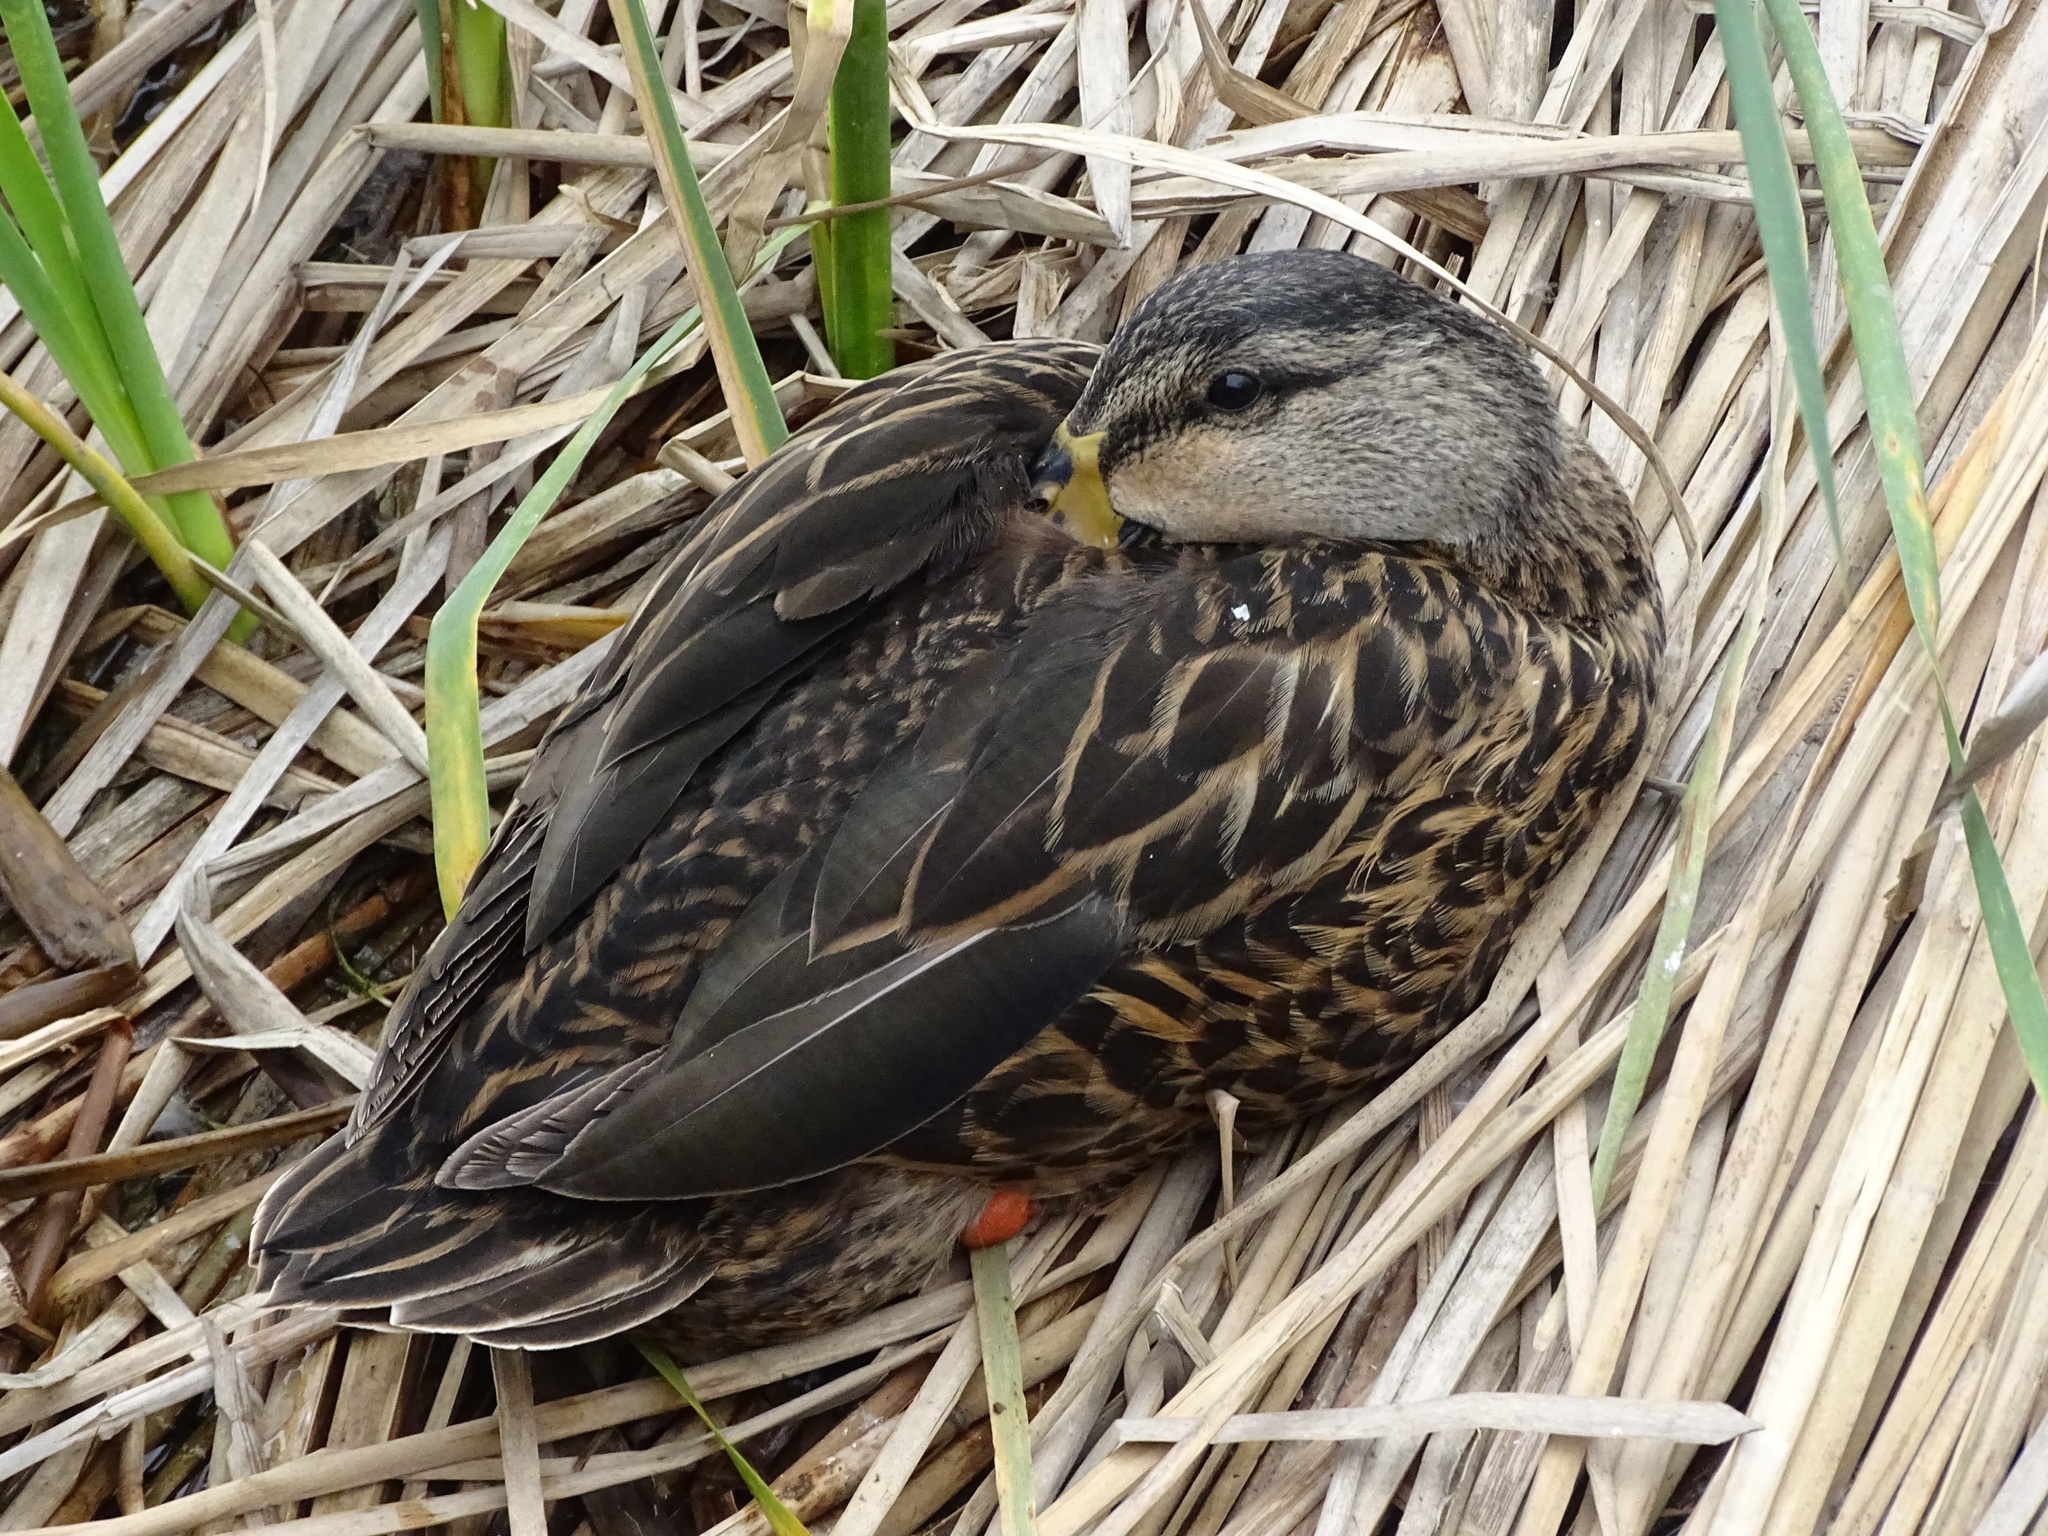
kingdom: Animalia
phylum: Chordata
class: Aves
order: Anseriformes
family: Anatidae
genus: Anas
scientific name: Anas fulvigula
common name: Mottled duck
